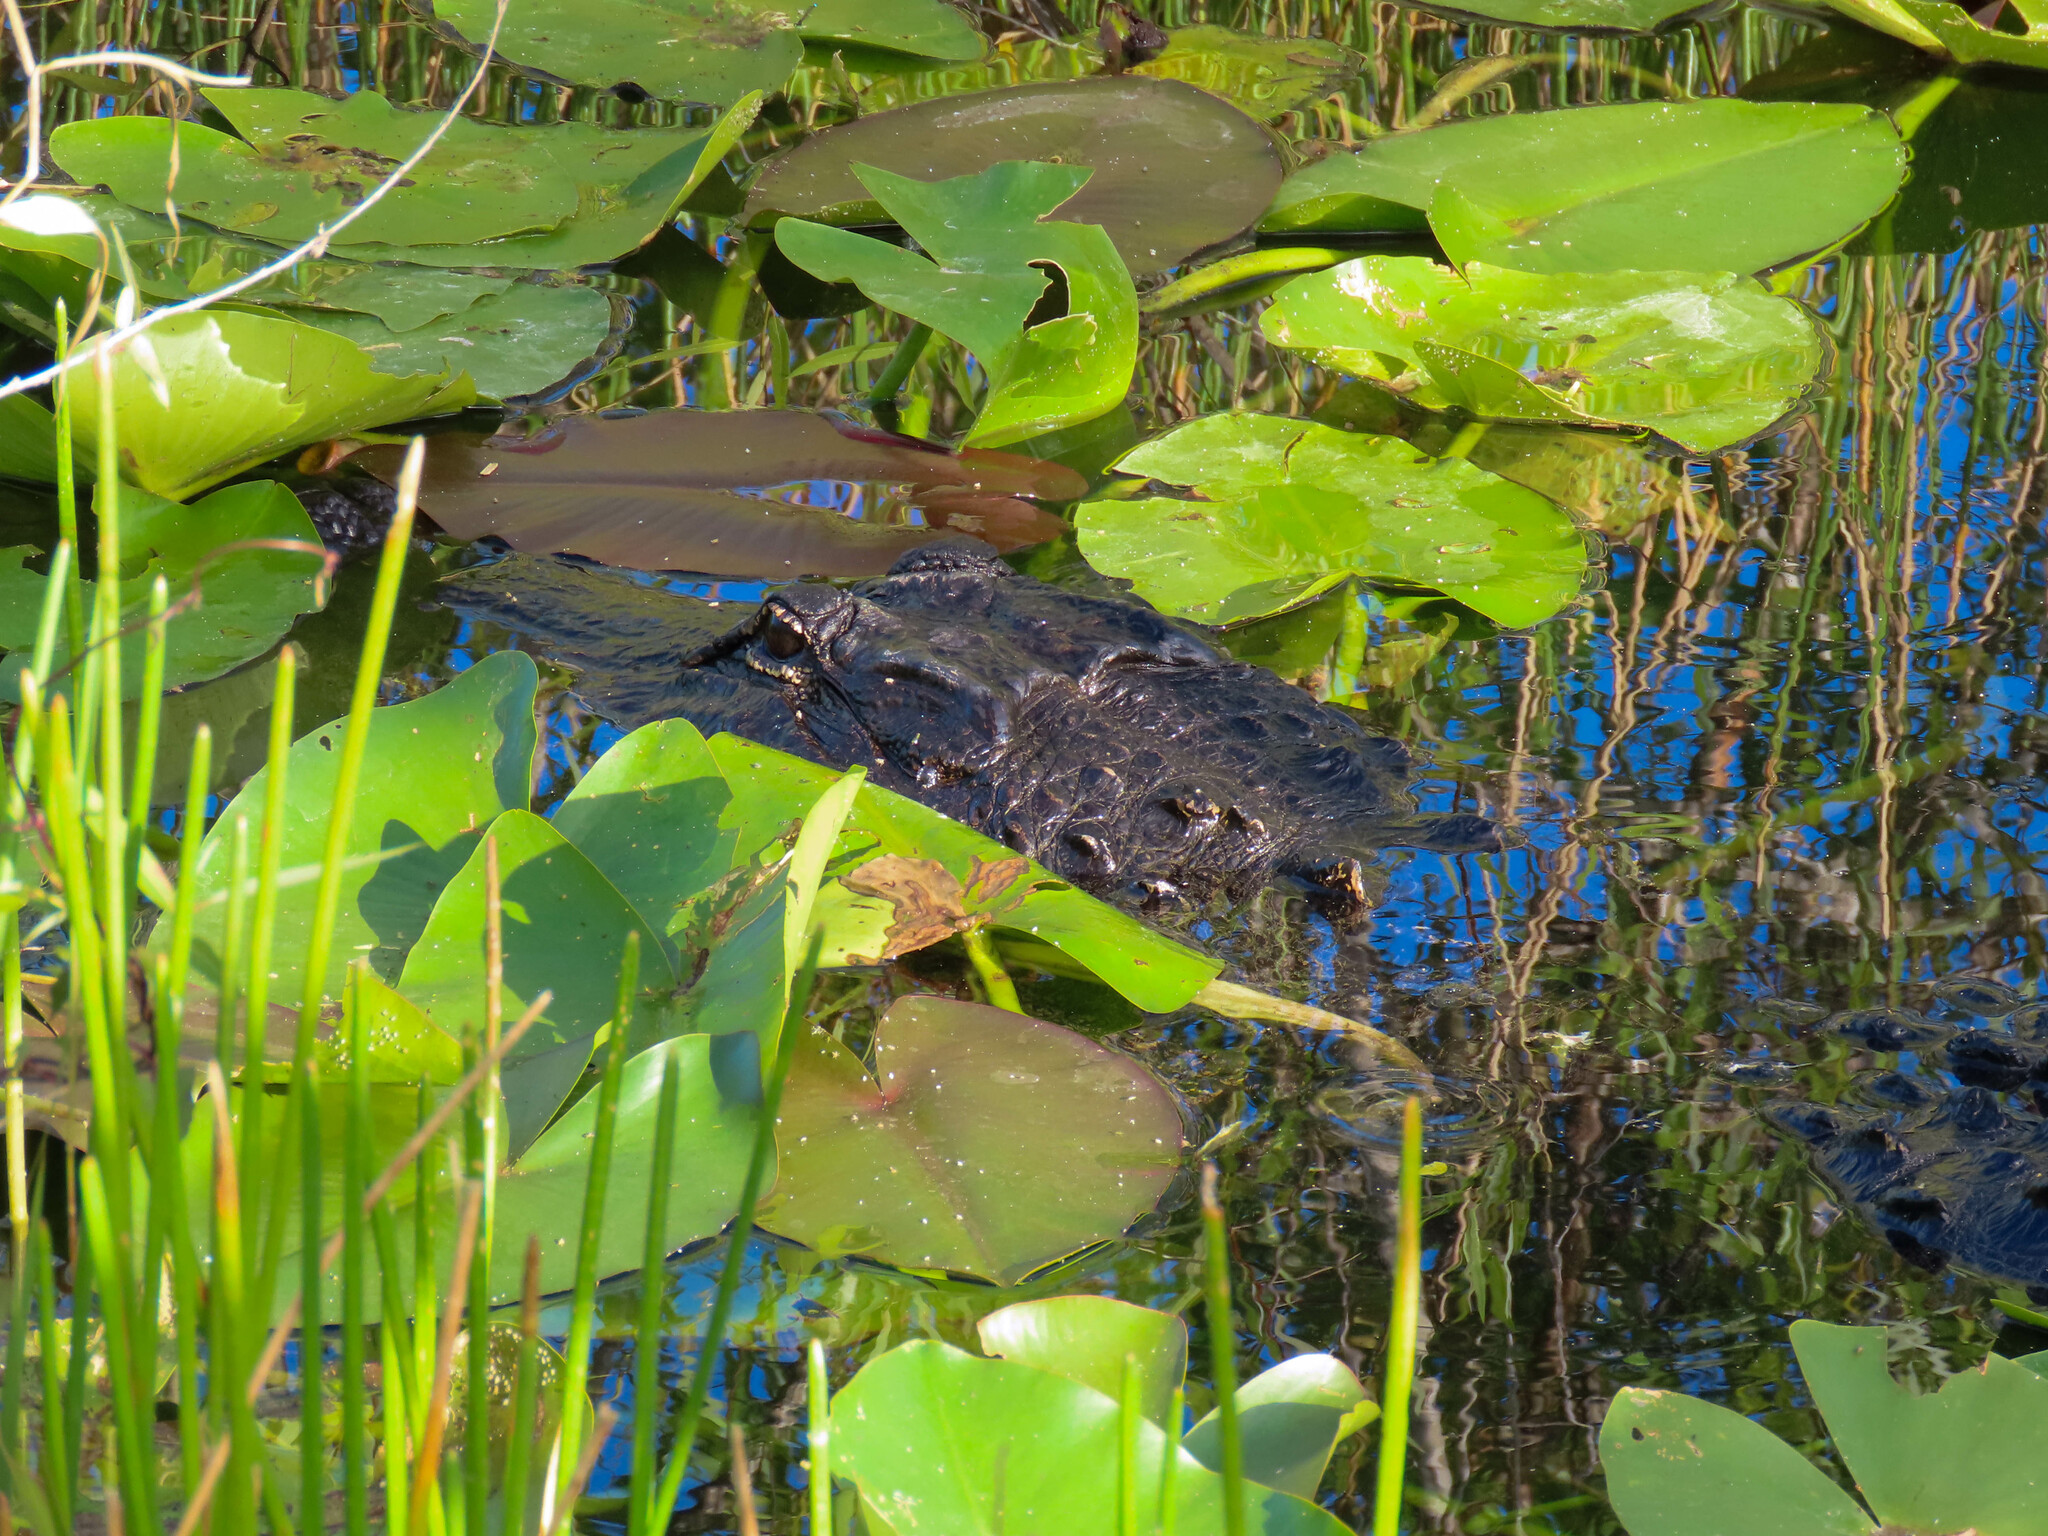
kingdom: Animalia
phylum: Chordata
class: Crocodylia
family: Alligatoridae
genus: Alligator
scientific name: Alligator mississippiensis
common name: American alligator
